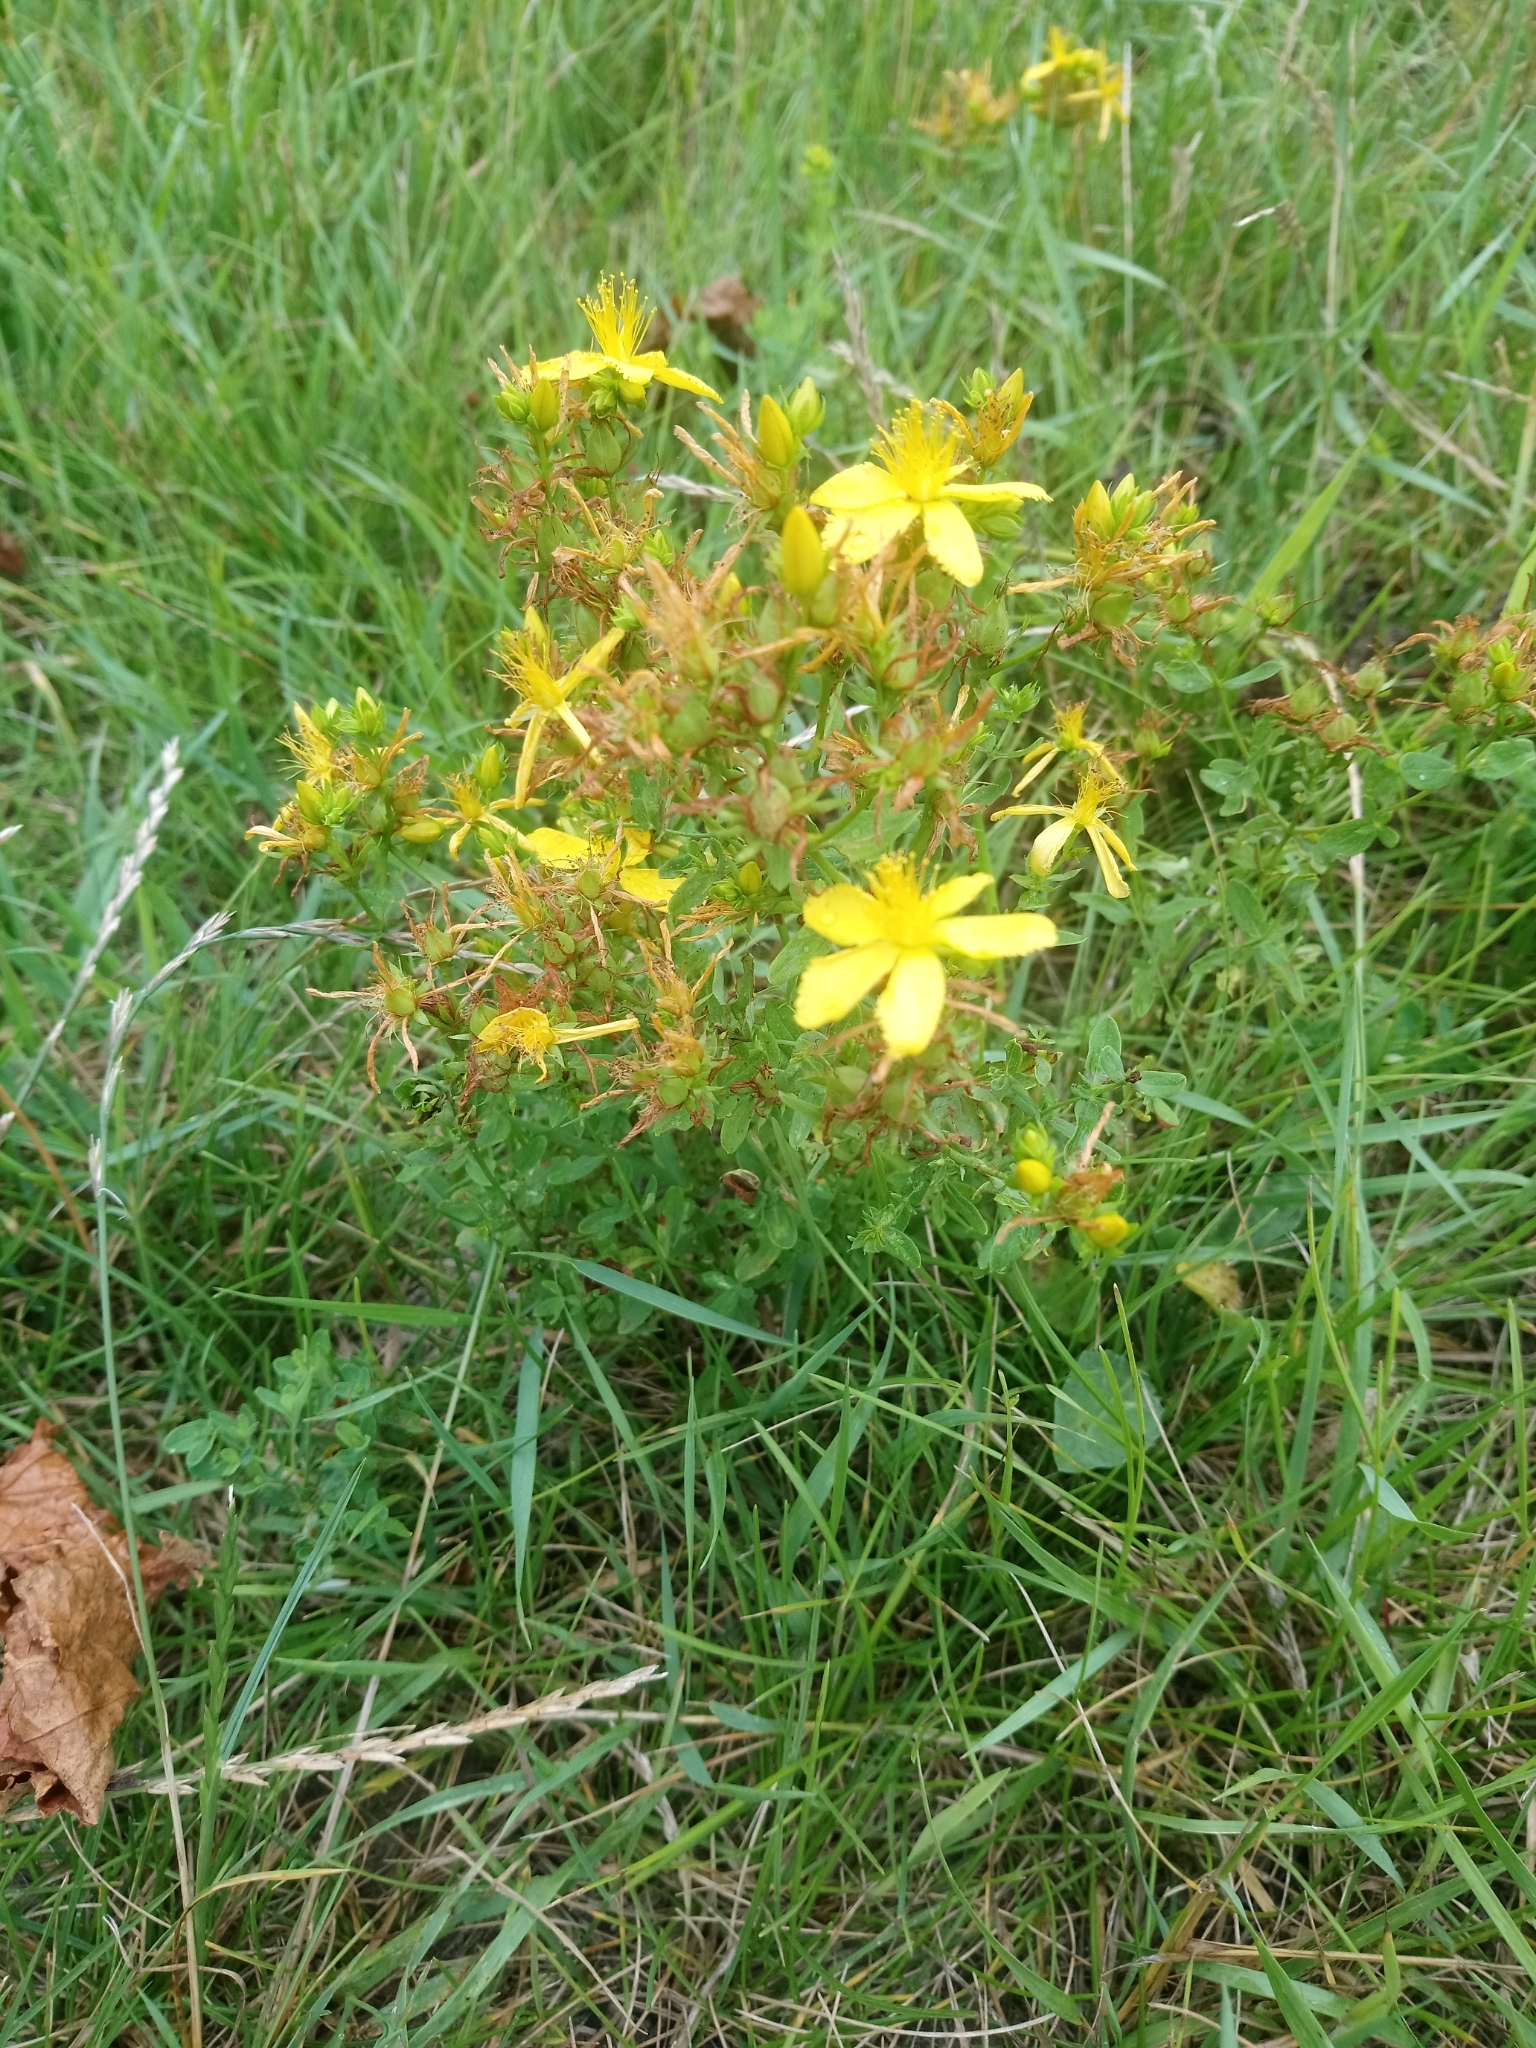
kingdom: Plantae
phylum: Tracheophyta
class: Magnoliopsida
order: Malpighiales
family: Hypericaceae
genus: Hypericum
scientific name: Hypericum perforatum
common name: Common st. johnswort
